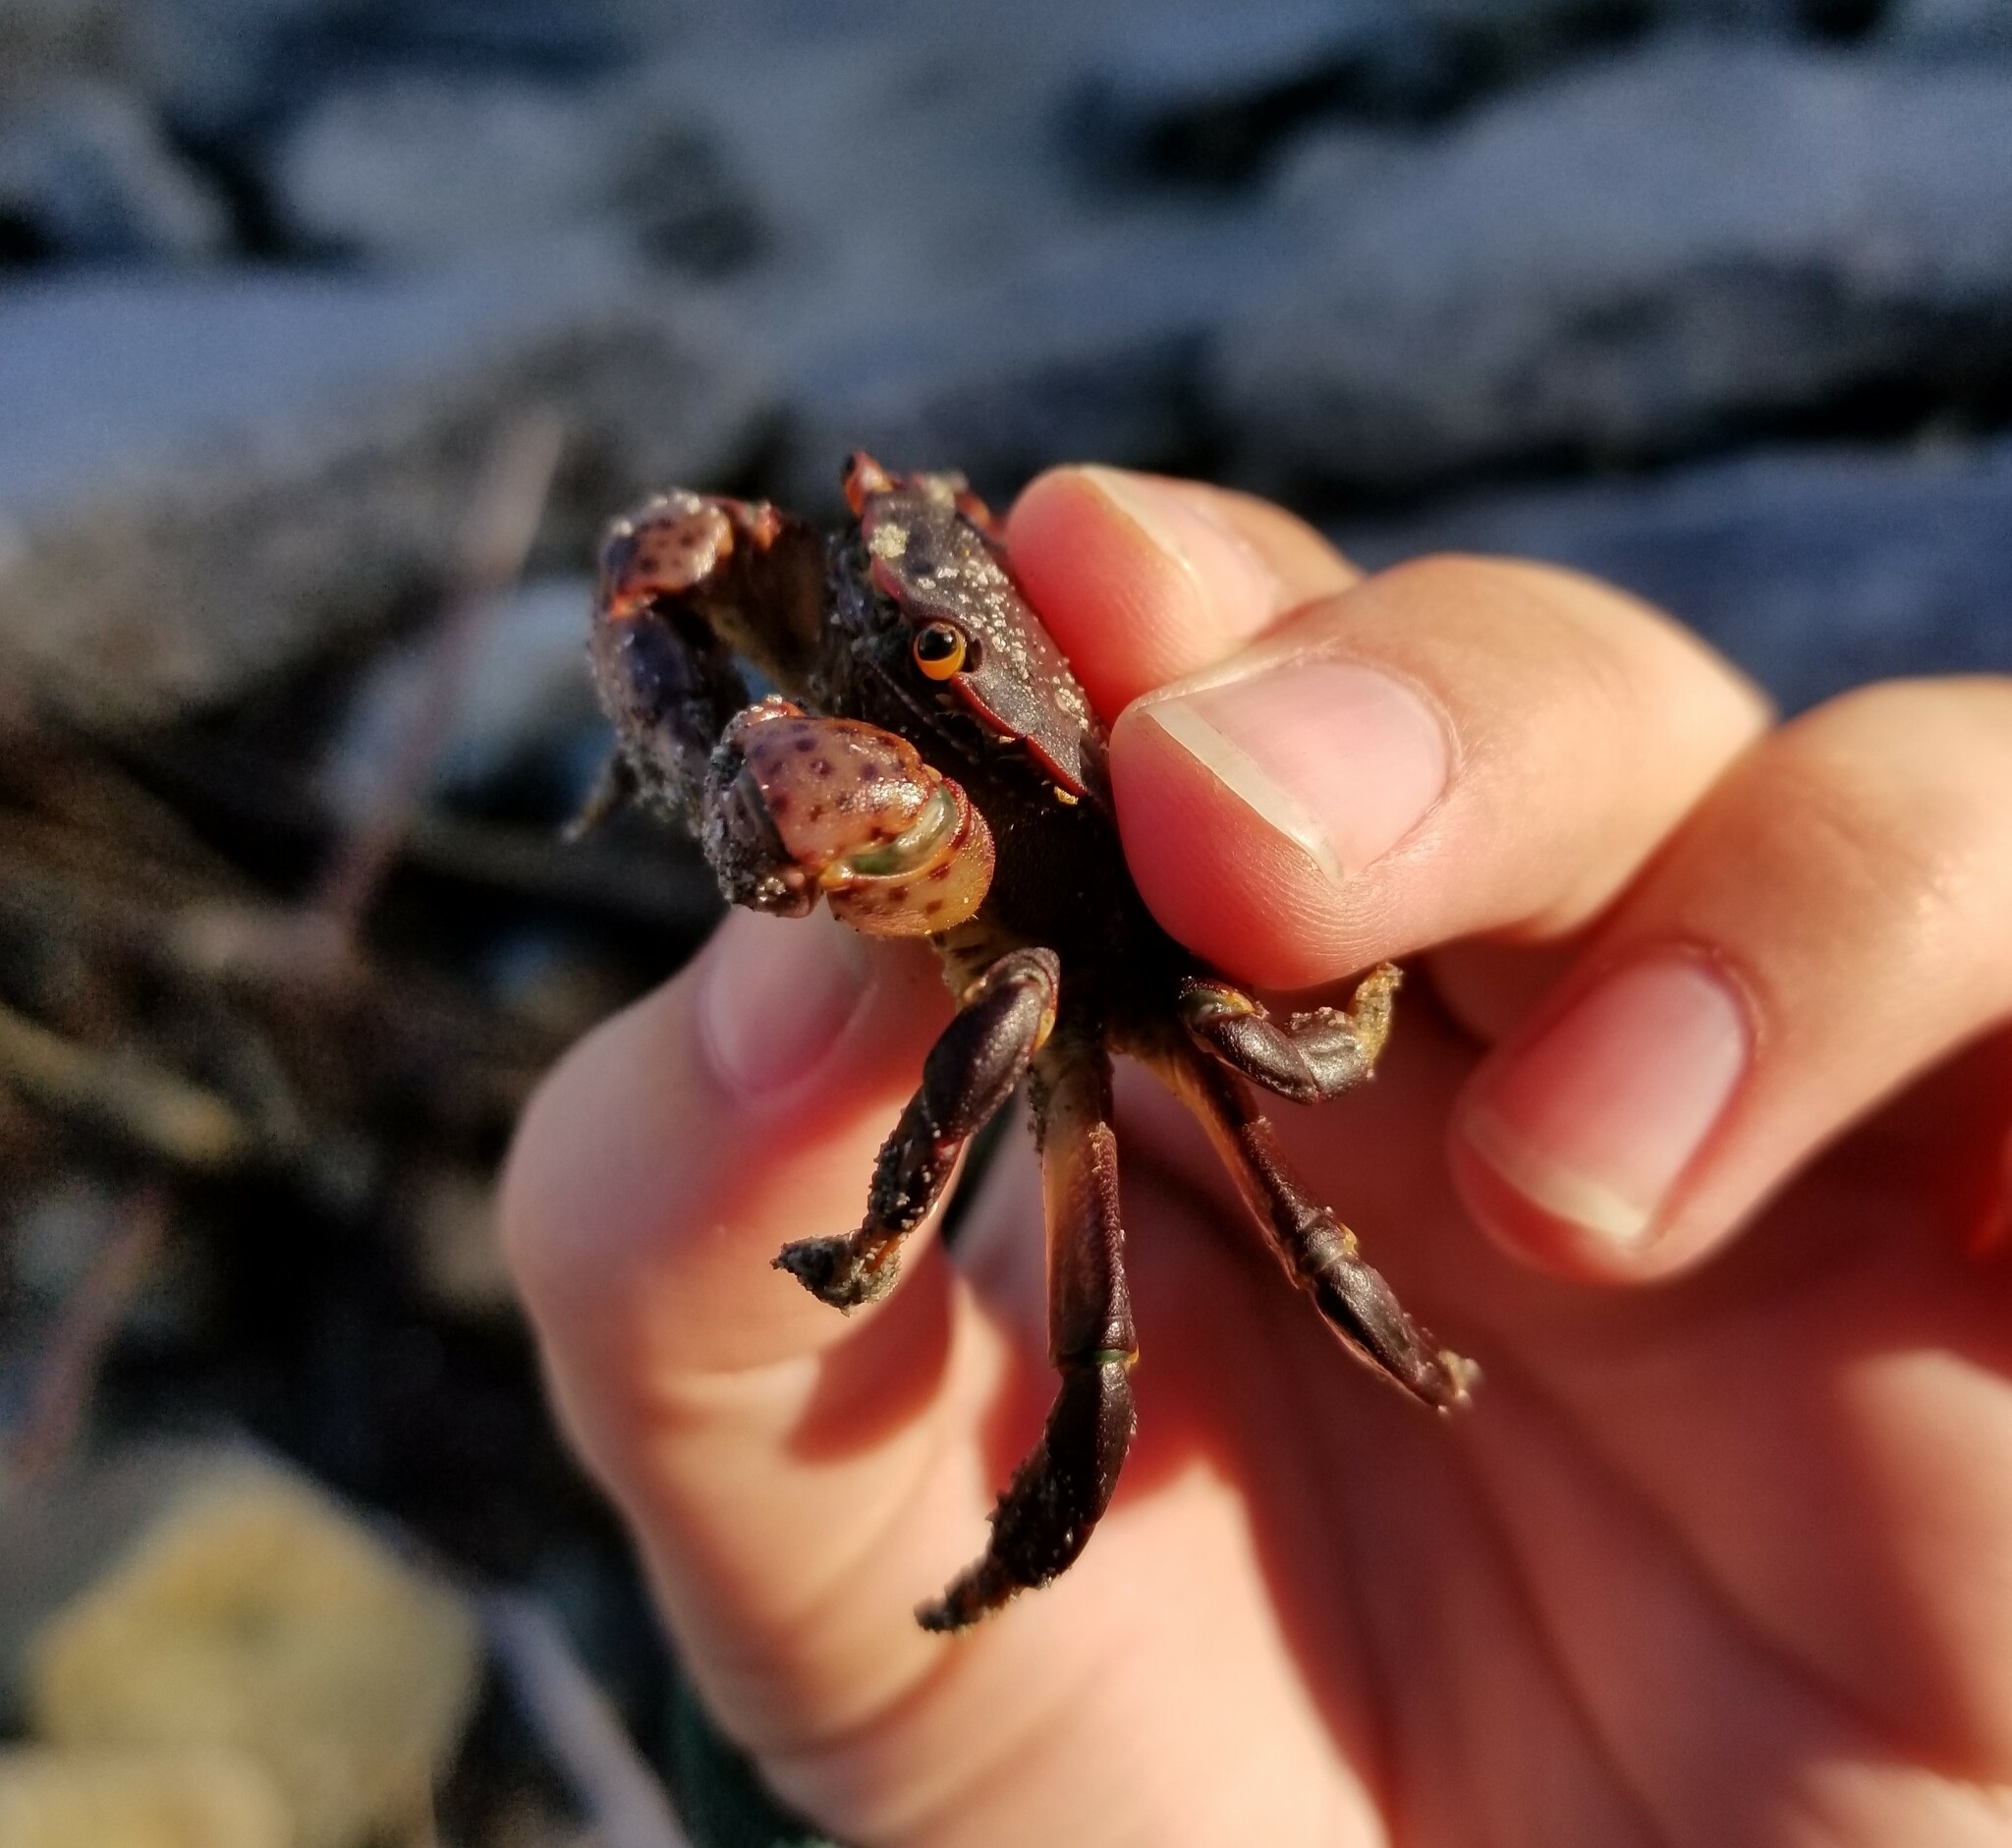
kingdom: Animalia
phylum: Arthropoda
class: Malacostraca
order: Decapoda
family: Varunidae
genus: Hemigrapsus
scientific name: Hemigrapsus nudus
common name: Purple shore crab
